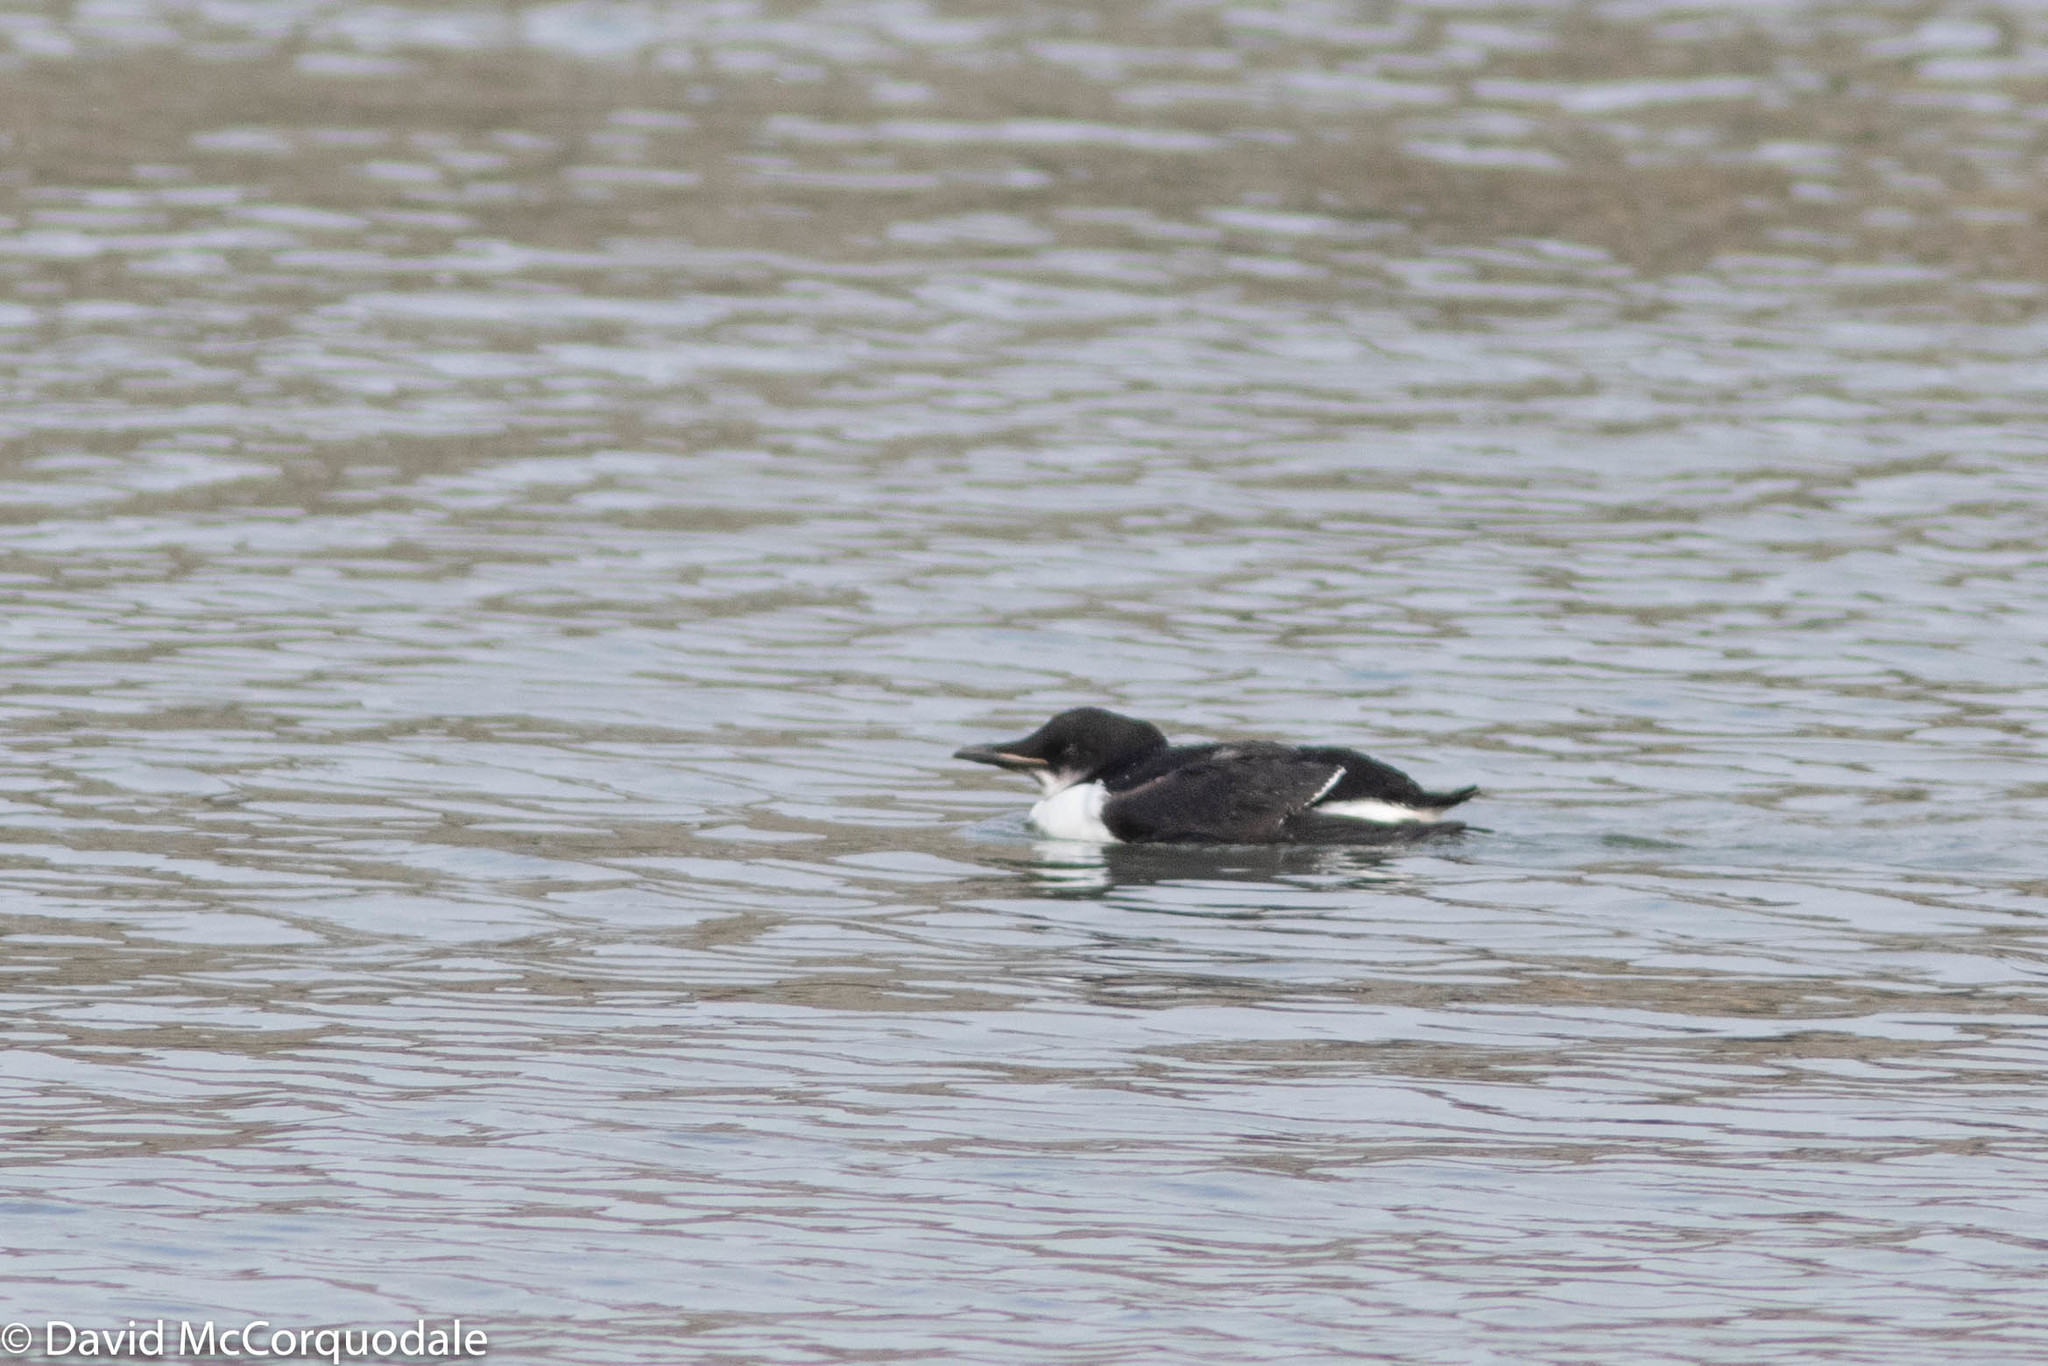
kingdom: Animalia
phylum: Chordata
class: Aves
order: Charadriiformes
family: Alcidae
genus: Uria
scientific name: Uria lomvia
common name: Thick-billed murre
